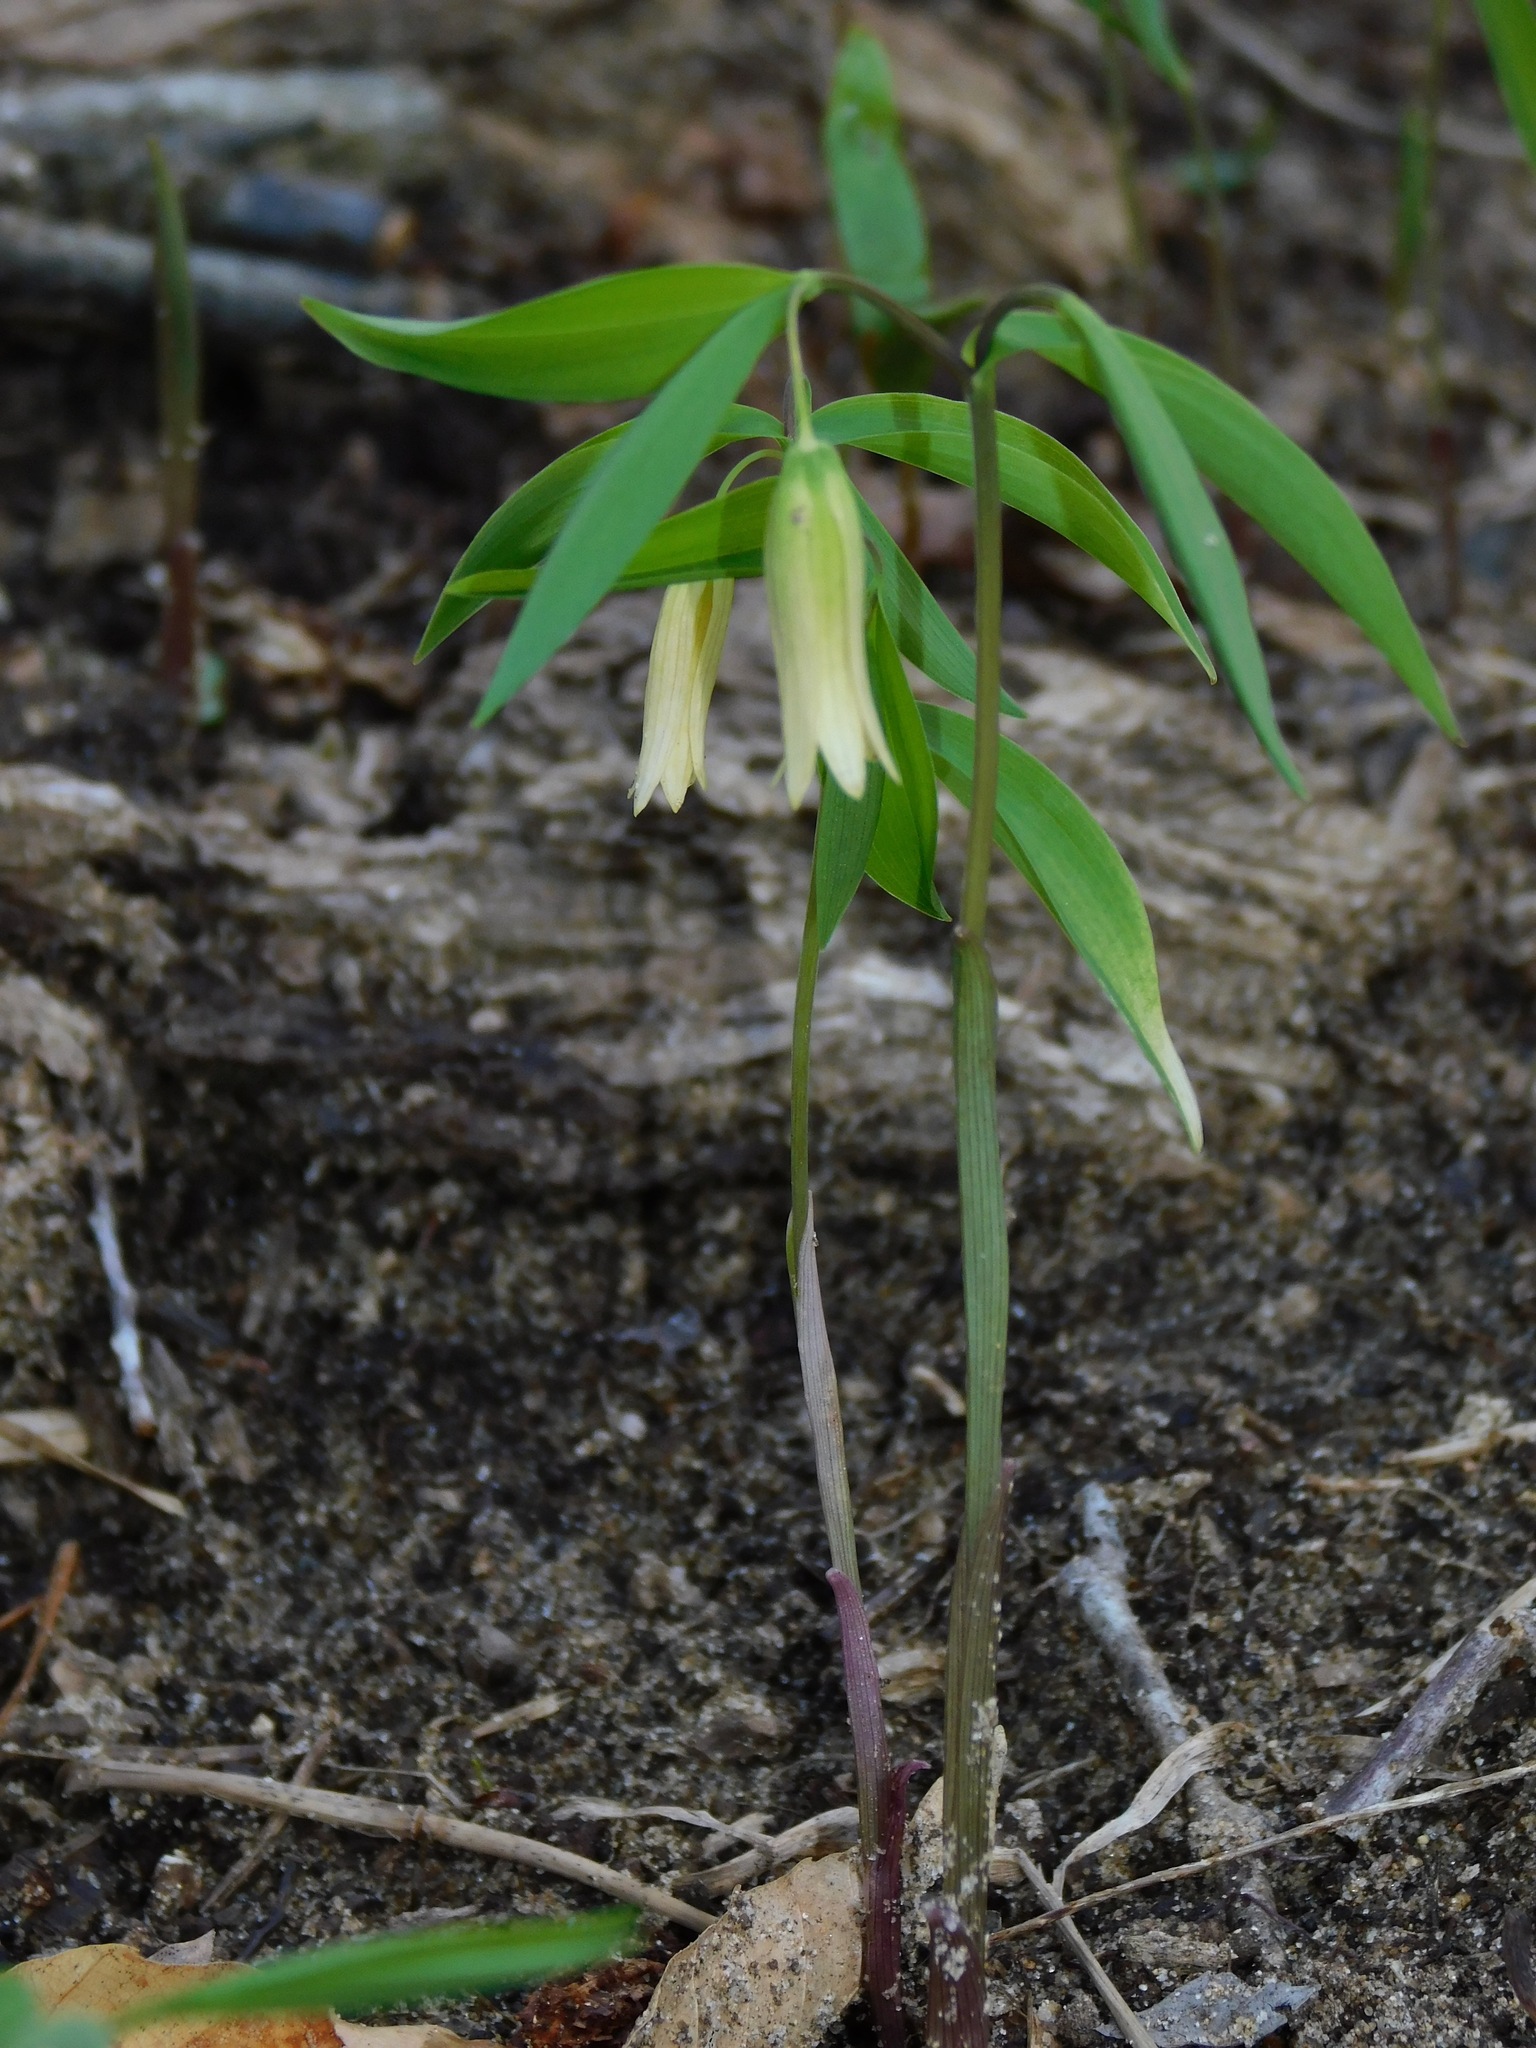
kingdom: Plantae
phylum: Tracheophyta
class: Liliopsida
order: Liliales
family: Colchicaceae
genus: Uvularia
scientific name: Uvularia sessilifolia
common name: Straw-lily
